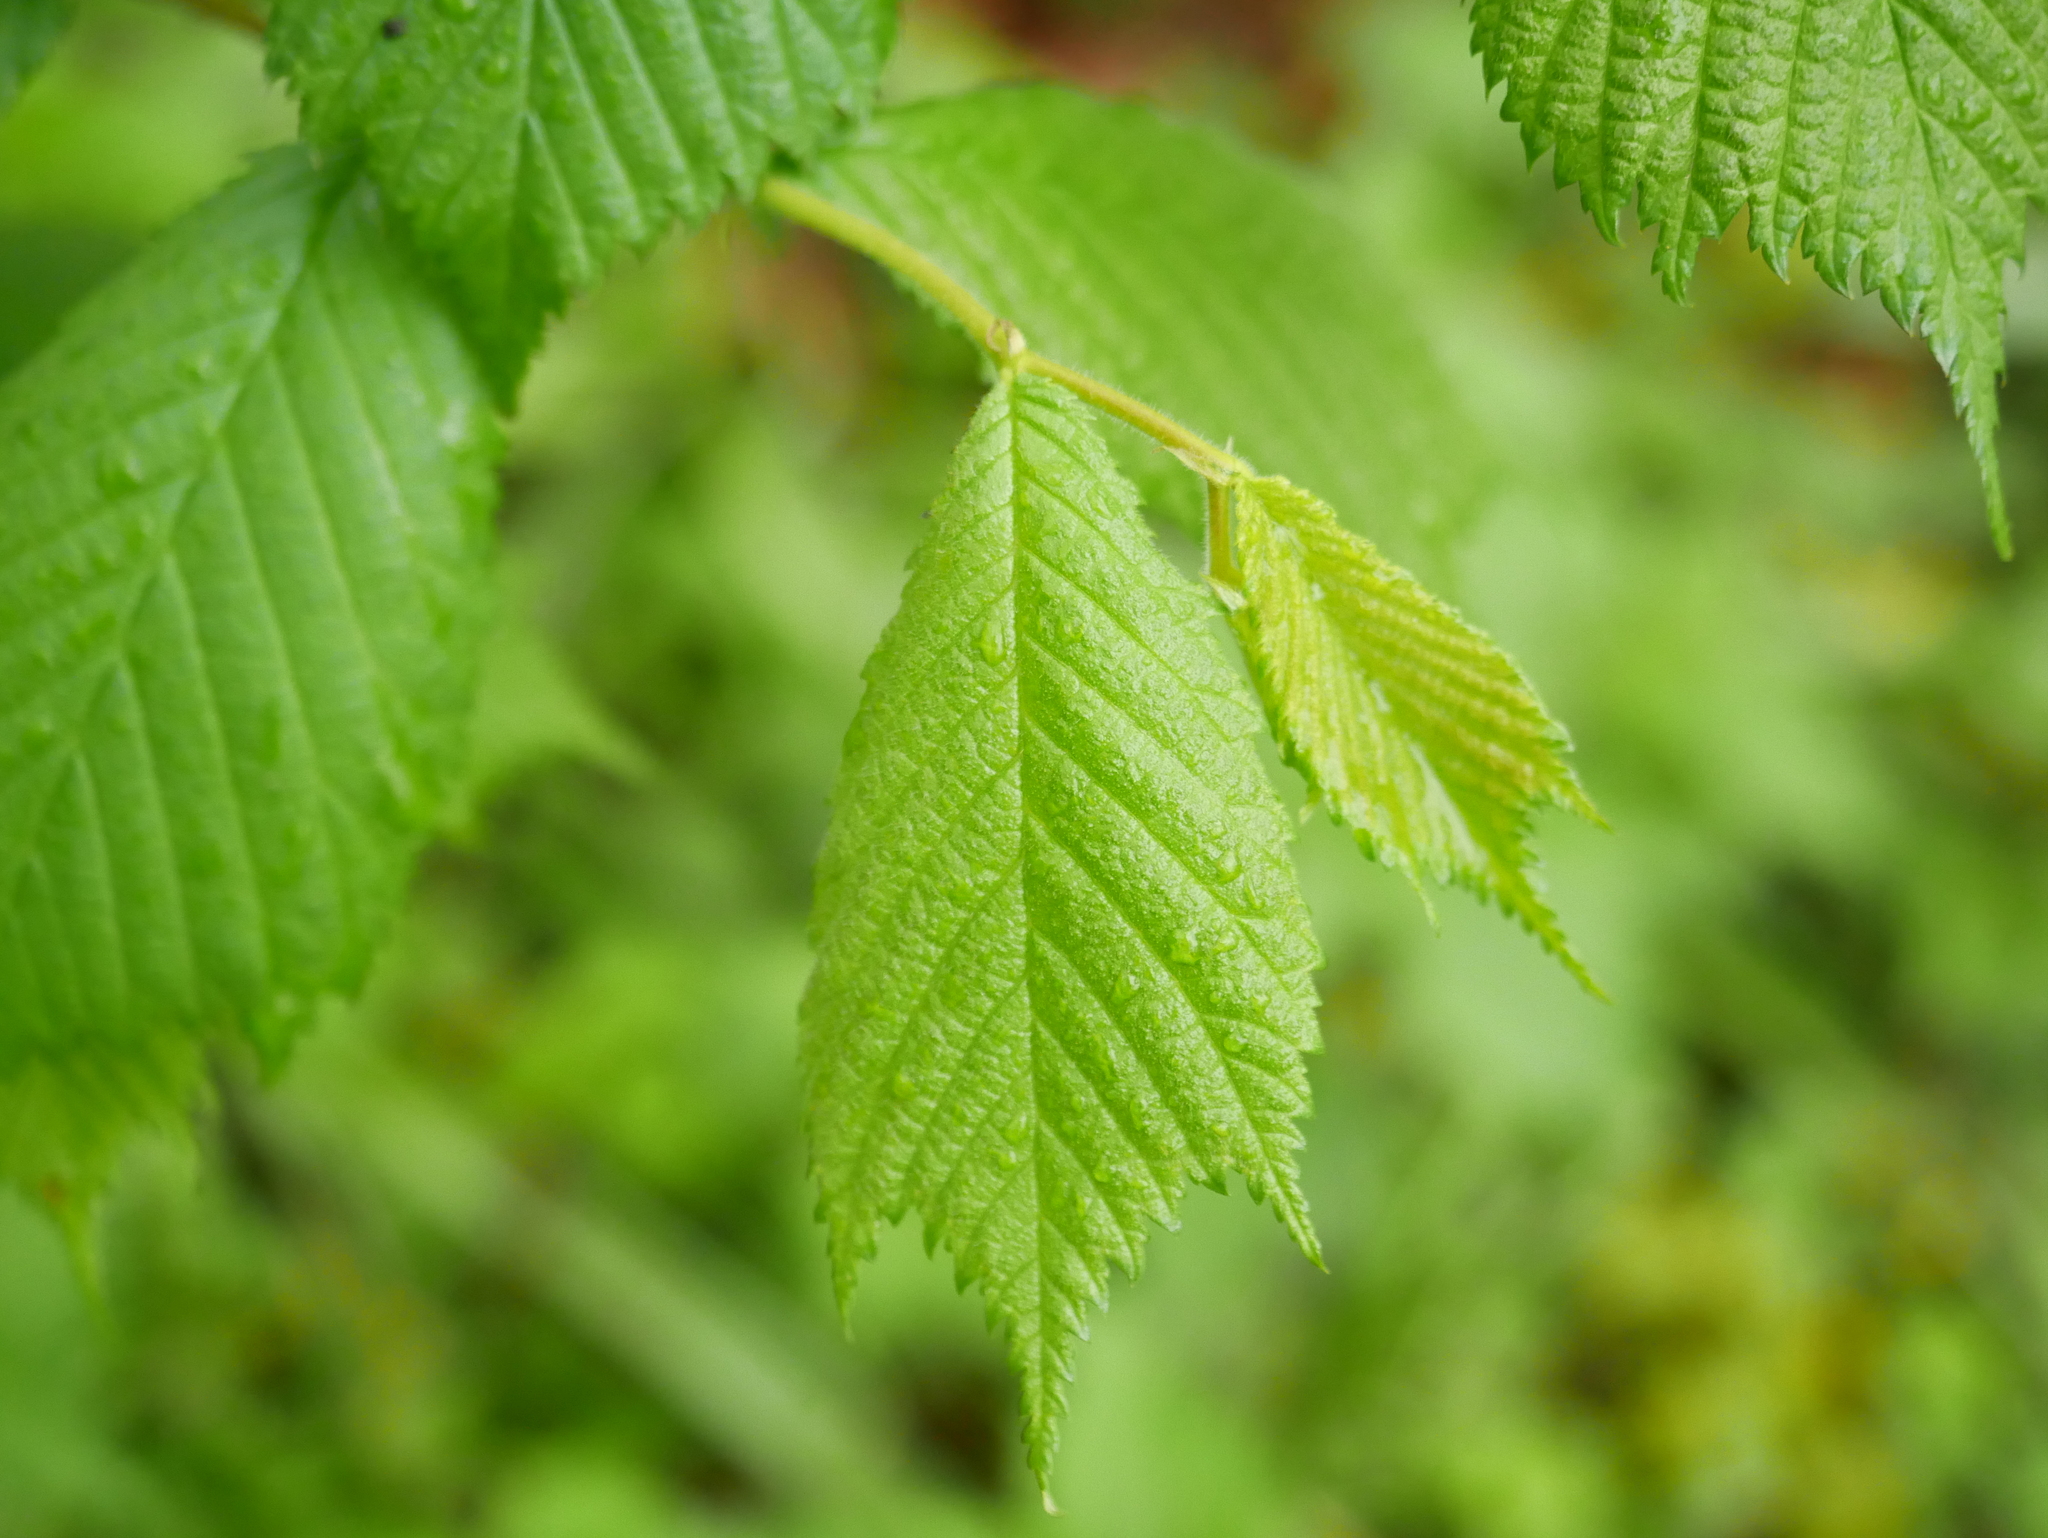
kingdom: Plantae
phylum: Tracheophyta
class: Magnoliopsida
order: Rosales
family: Ulmaceae
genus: Ulmus
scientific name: Ulmus glabra
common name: Wych elm
